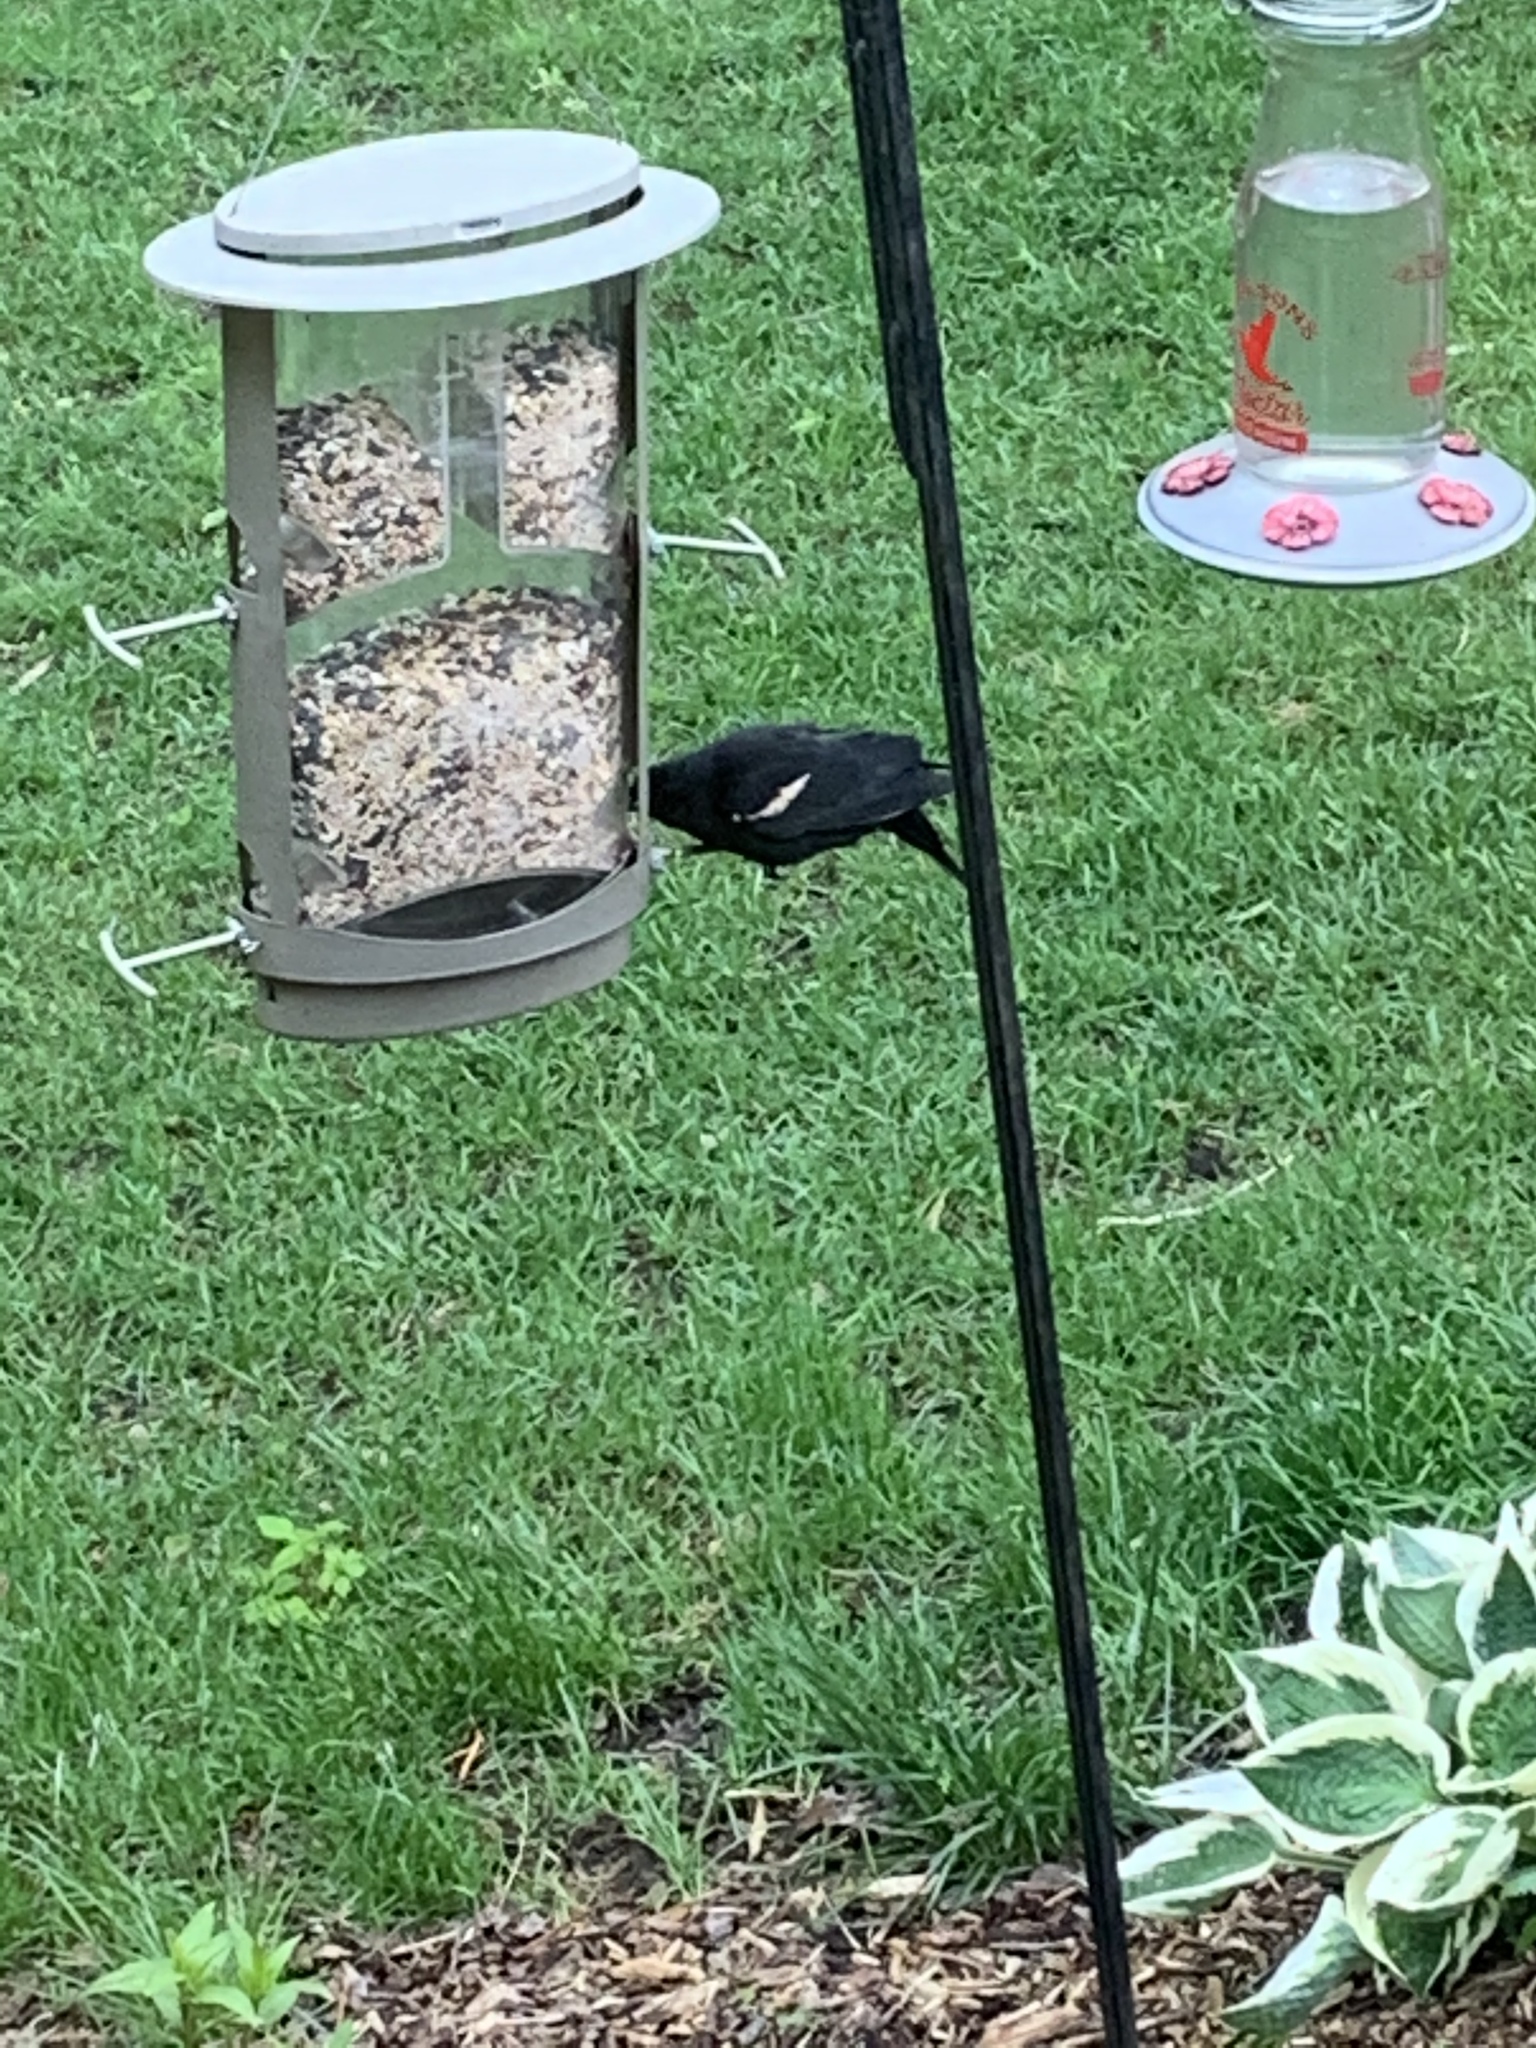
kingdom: Animalia
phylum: Chordata
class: Aves
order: Passeriformes
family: Icteridae
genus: Agelaius
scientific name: Agelaius phoeniceus
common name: Red-winged blackbird
